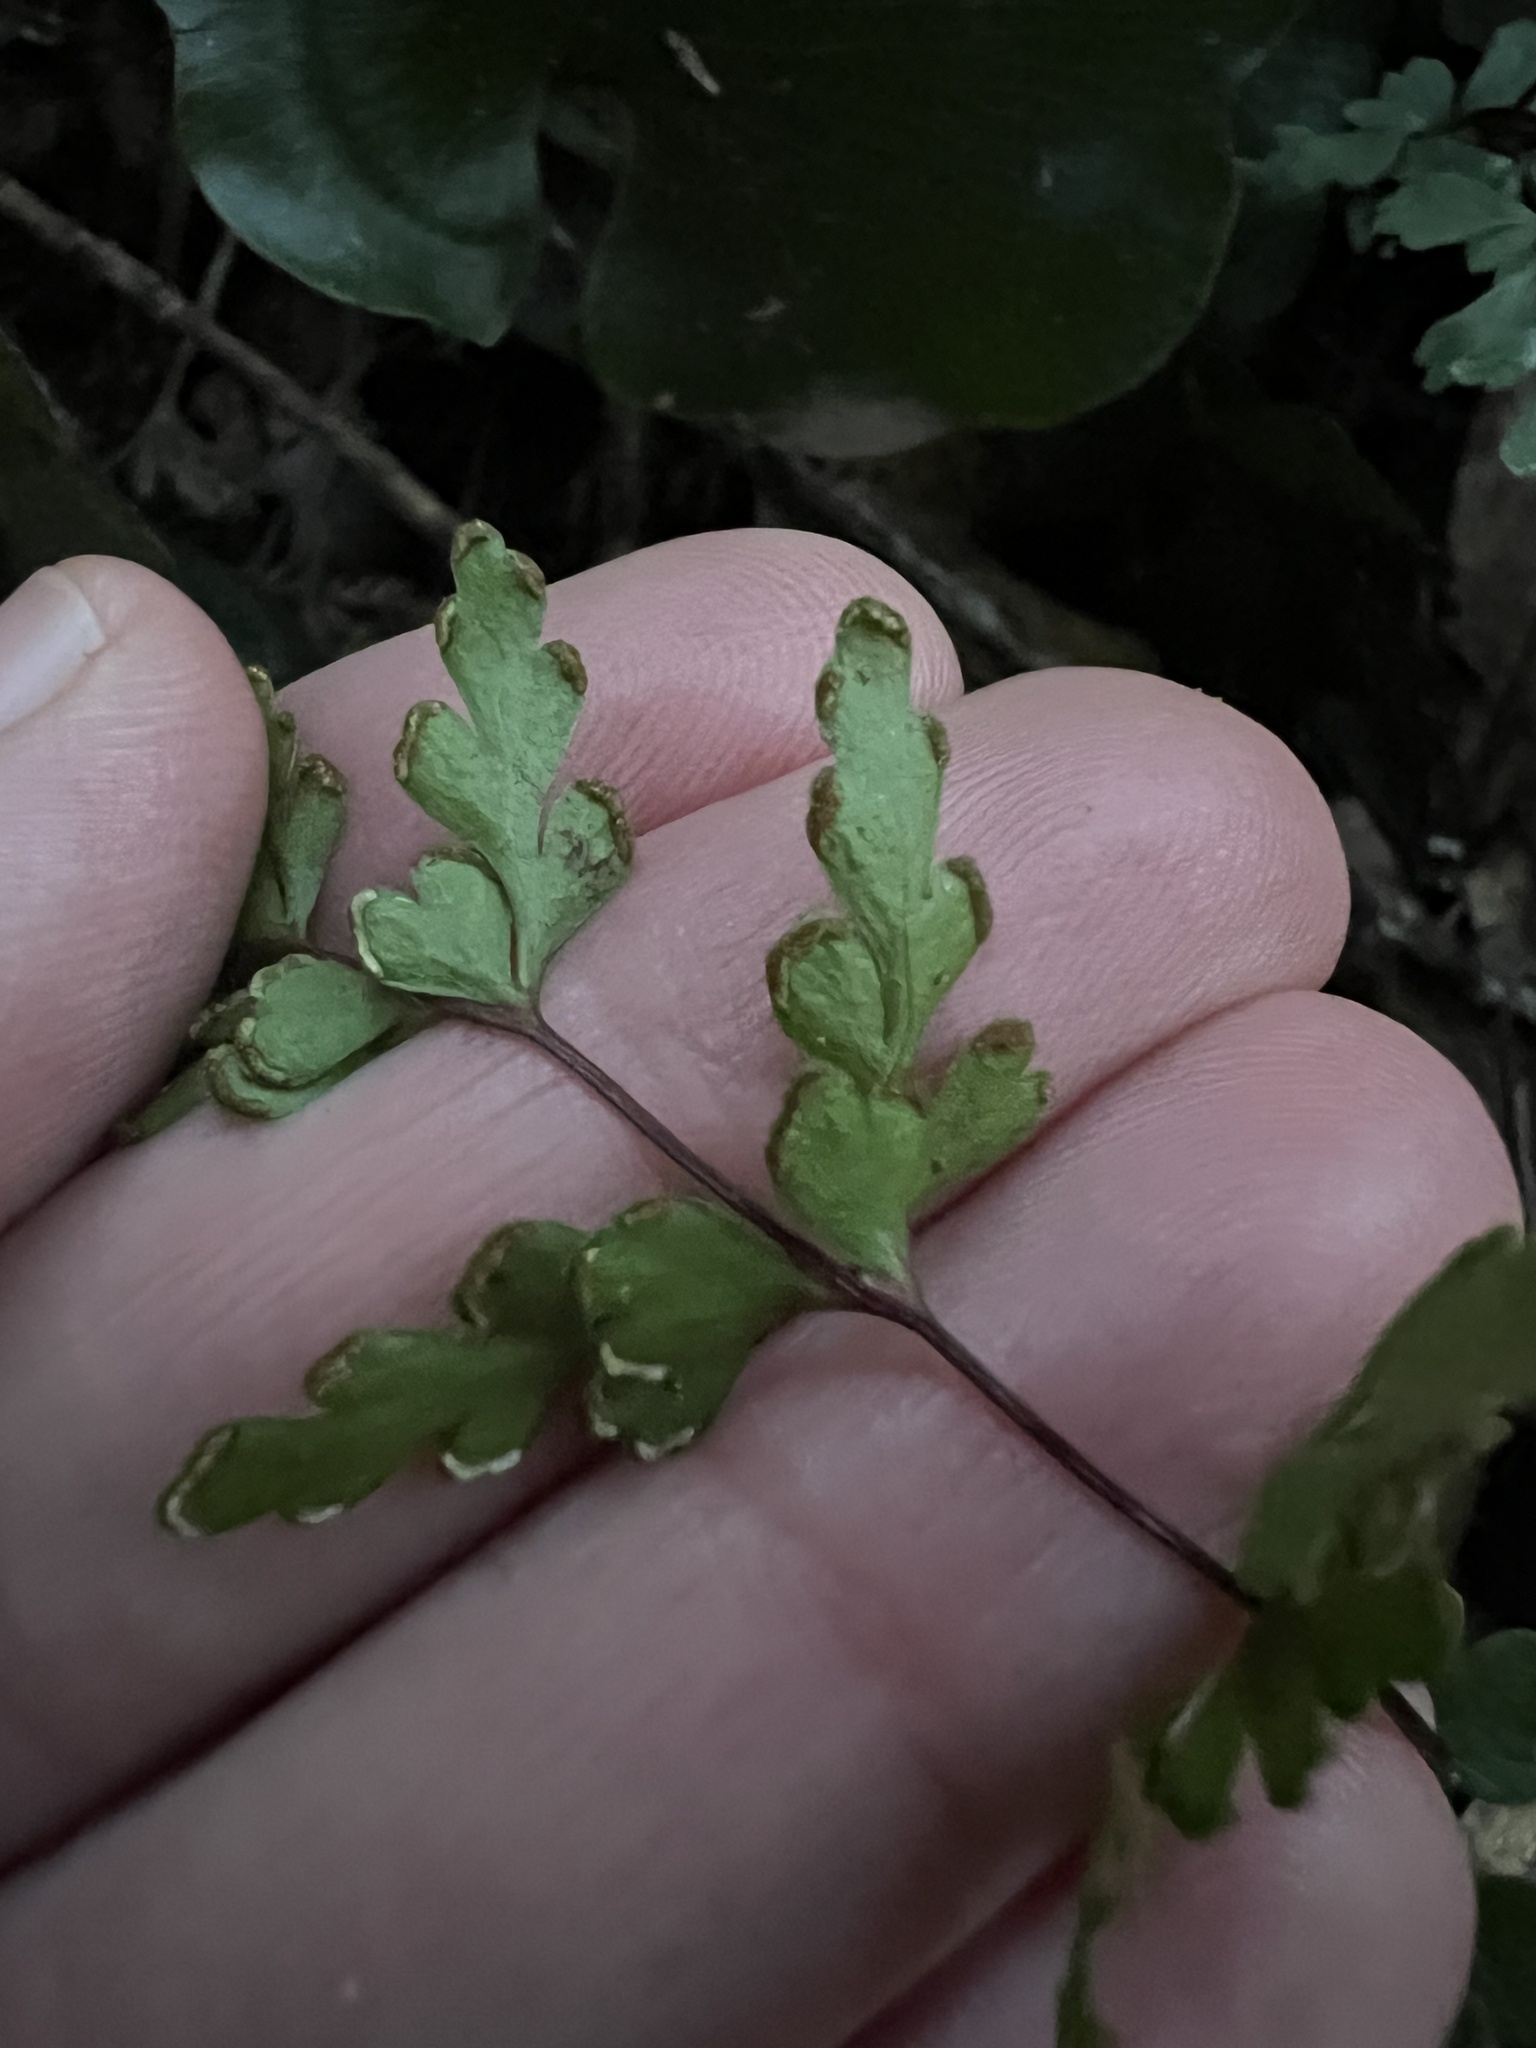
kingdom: Plantae
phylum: Tracheophyta
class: Polypodiopsida
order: Polypodiales
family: Lindsaeaceae
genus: Lindsaea
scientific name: Lindsaea trichomanoides
